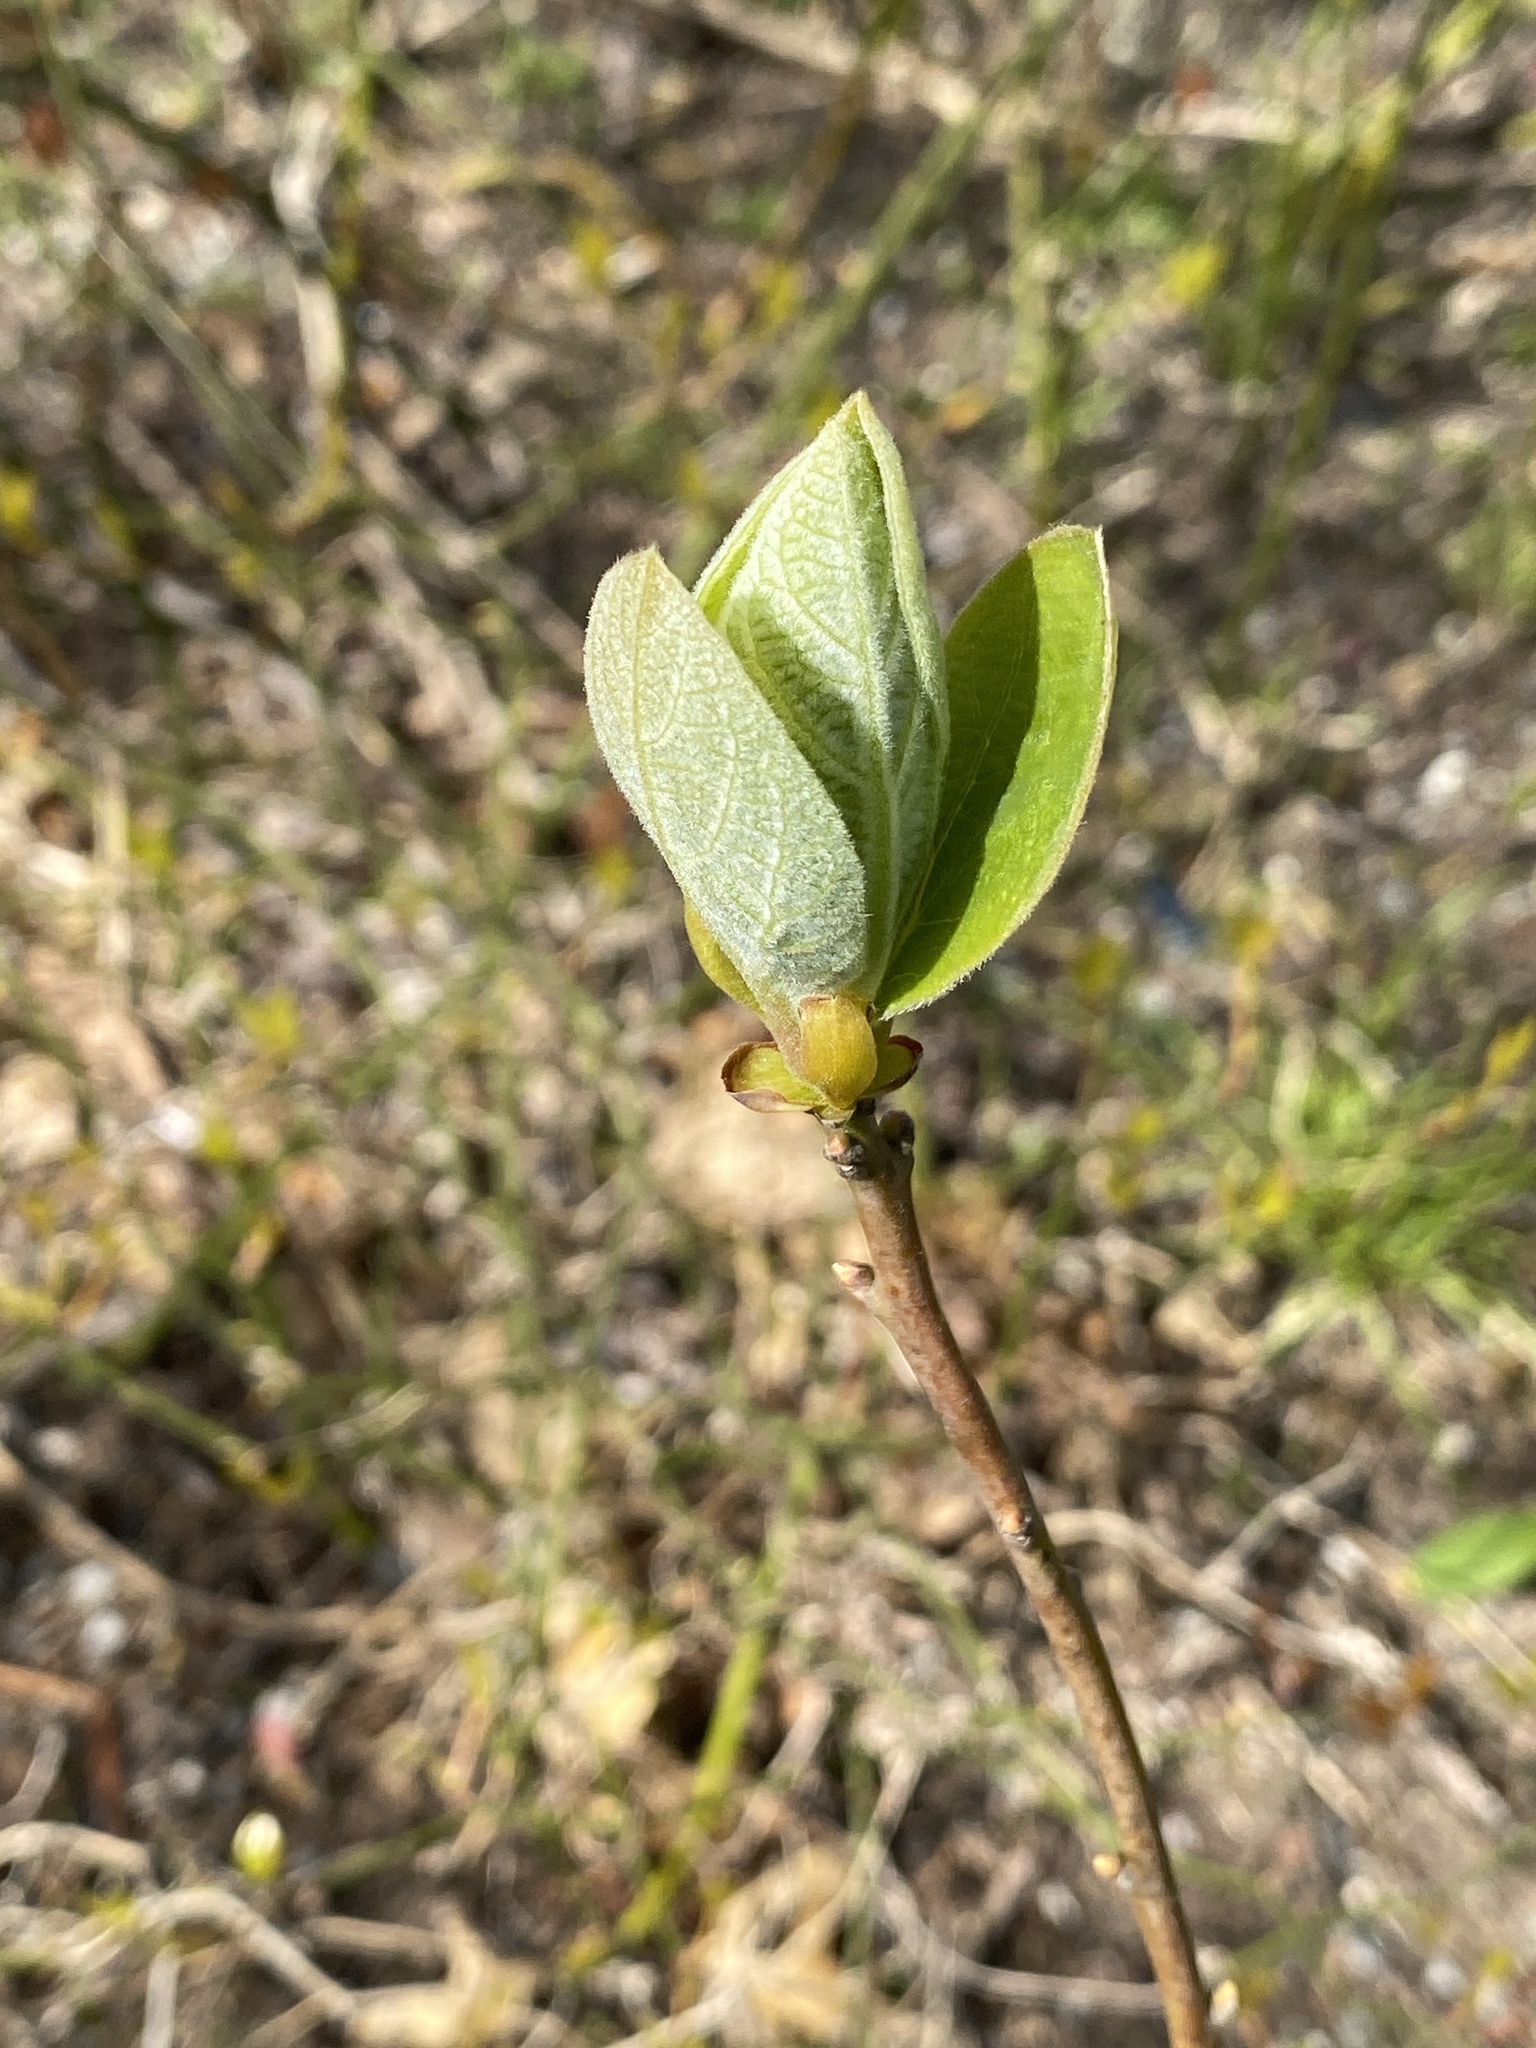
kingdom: Plantae
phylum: Tracheophyta
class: Magnoliopsida
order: Laurales
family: Lauraceae
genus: Sassafras
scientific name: Sassafras albidum
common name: Sassafras
